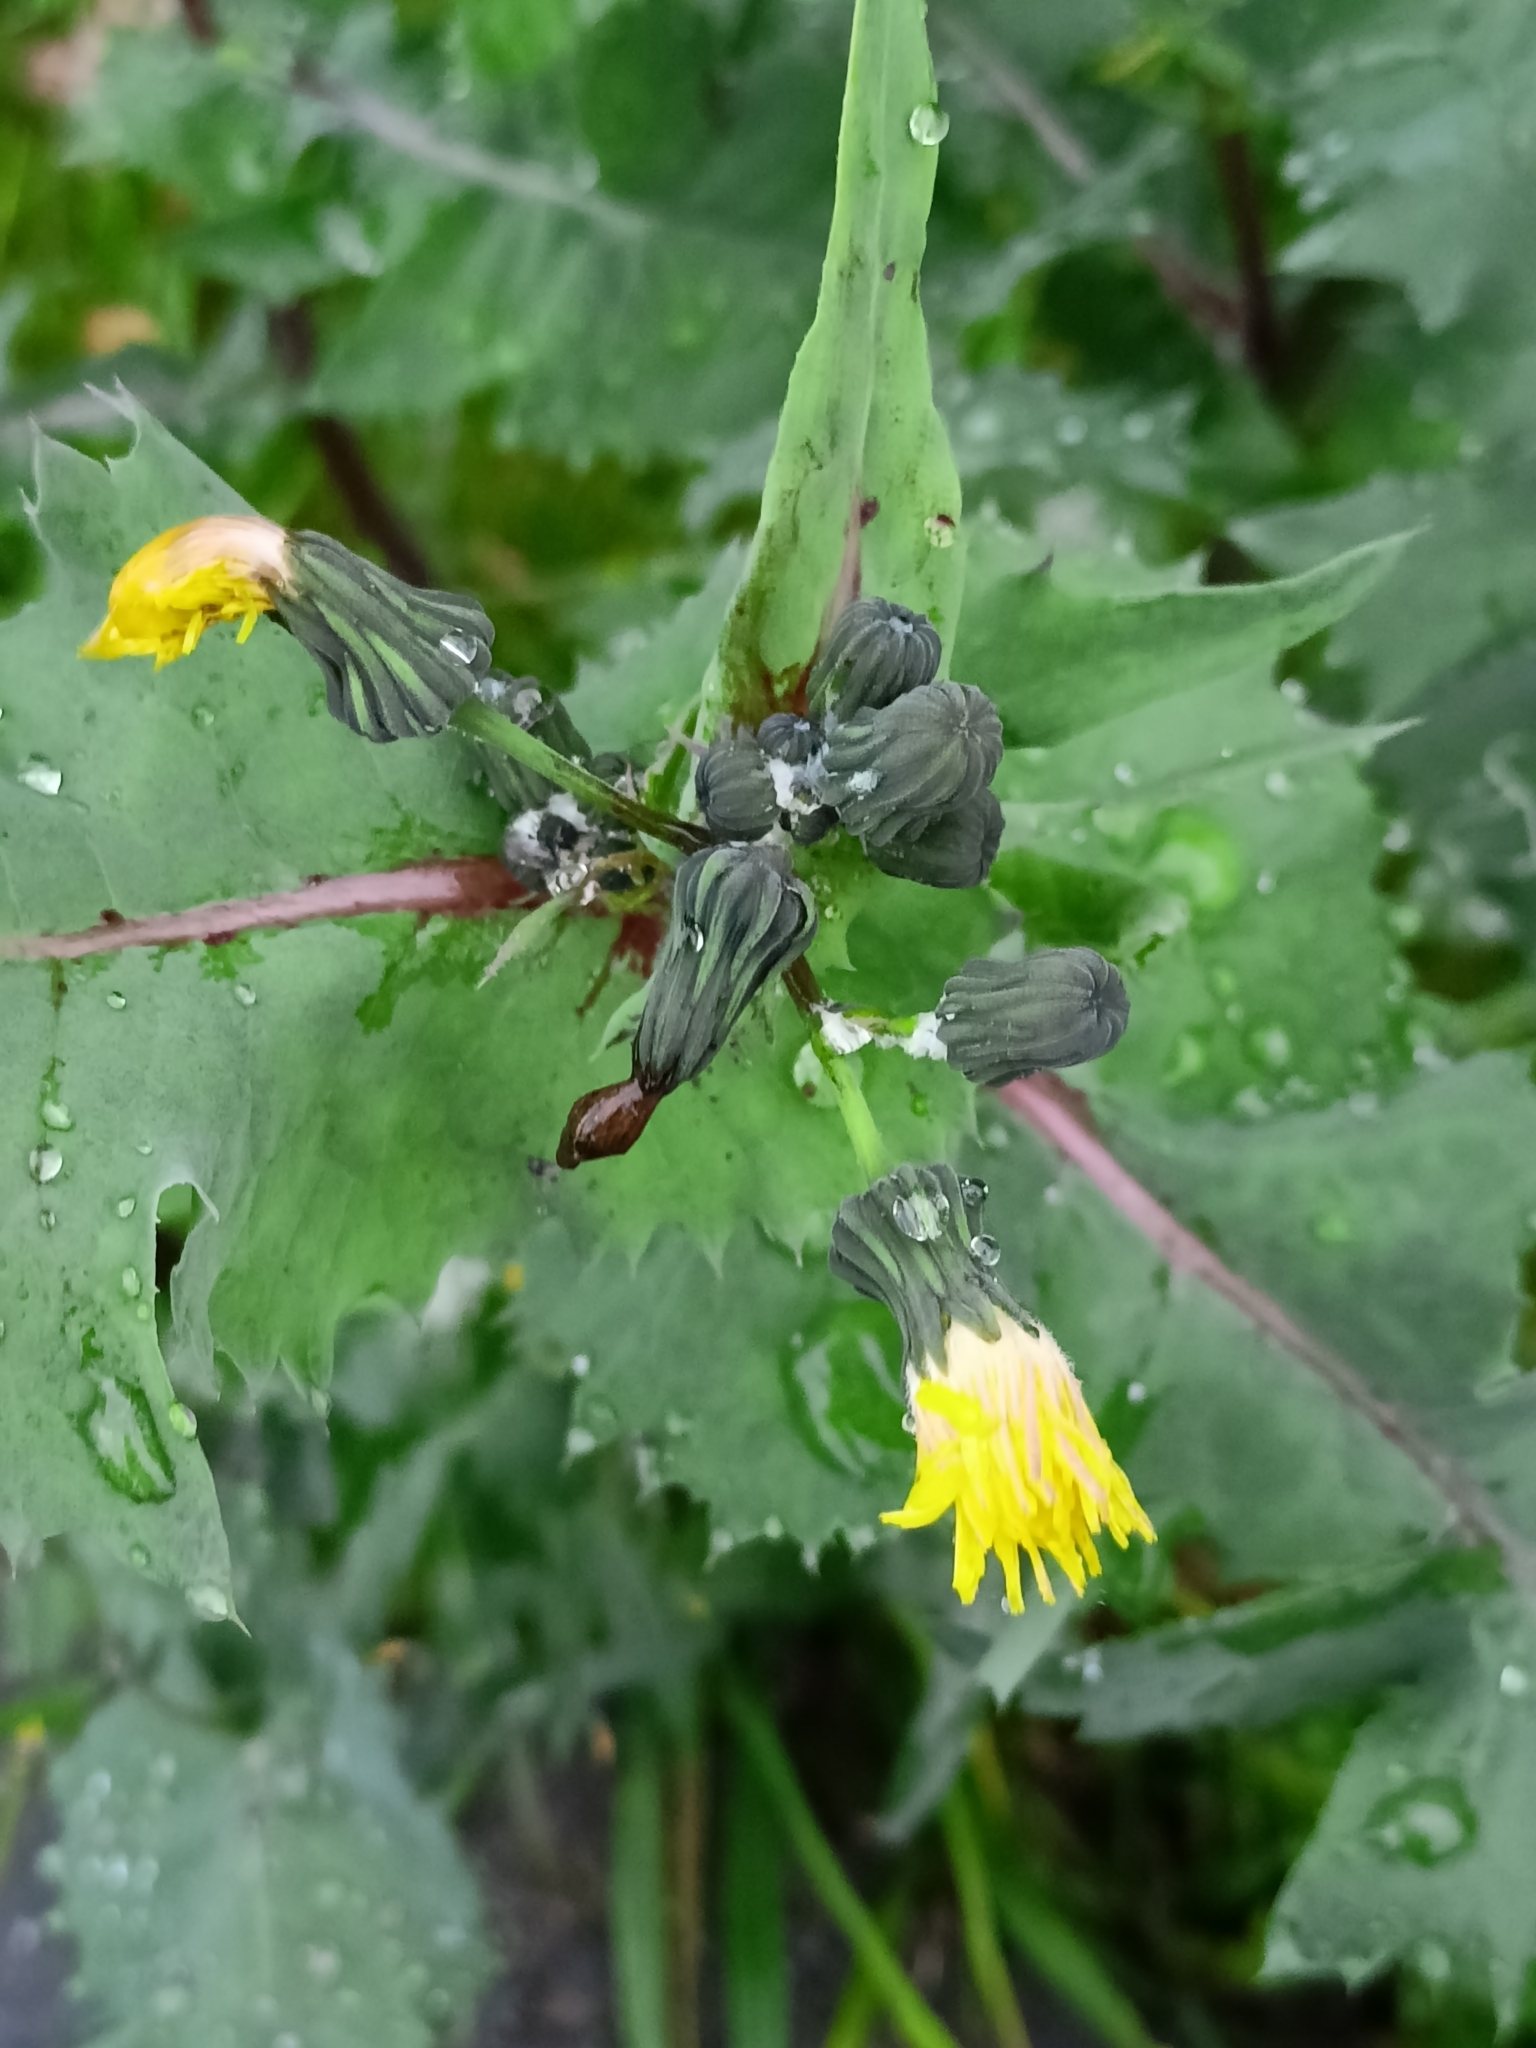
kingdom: Plantae
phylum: Tracheophyta
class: Magnoliopsida
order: Asterales
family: Asteraceae
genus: Sonchus
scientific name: Sonchus oleraceus
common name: Common sowthistle
